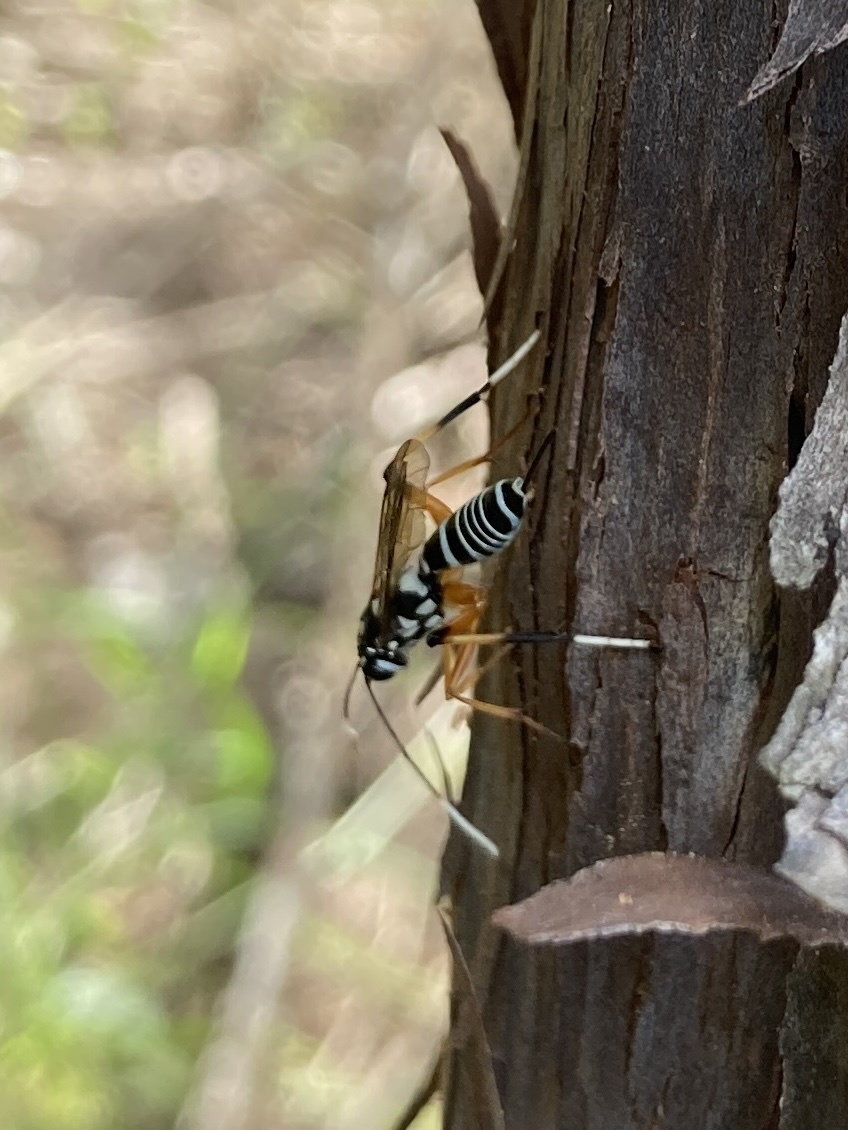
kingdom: Animalia
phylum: Arthropoda
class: Insecta
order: Hymenoptera
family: Ichneumonidae
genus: Xanthocryptus
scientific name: Xanthocryptus novozealandicus
